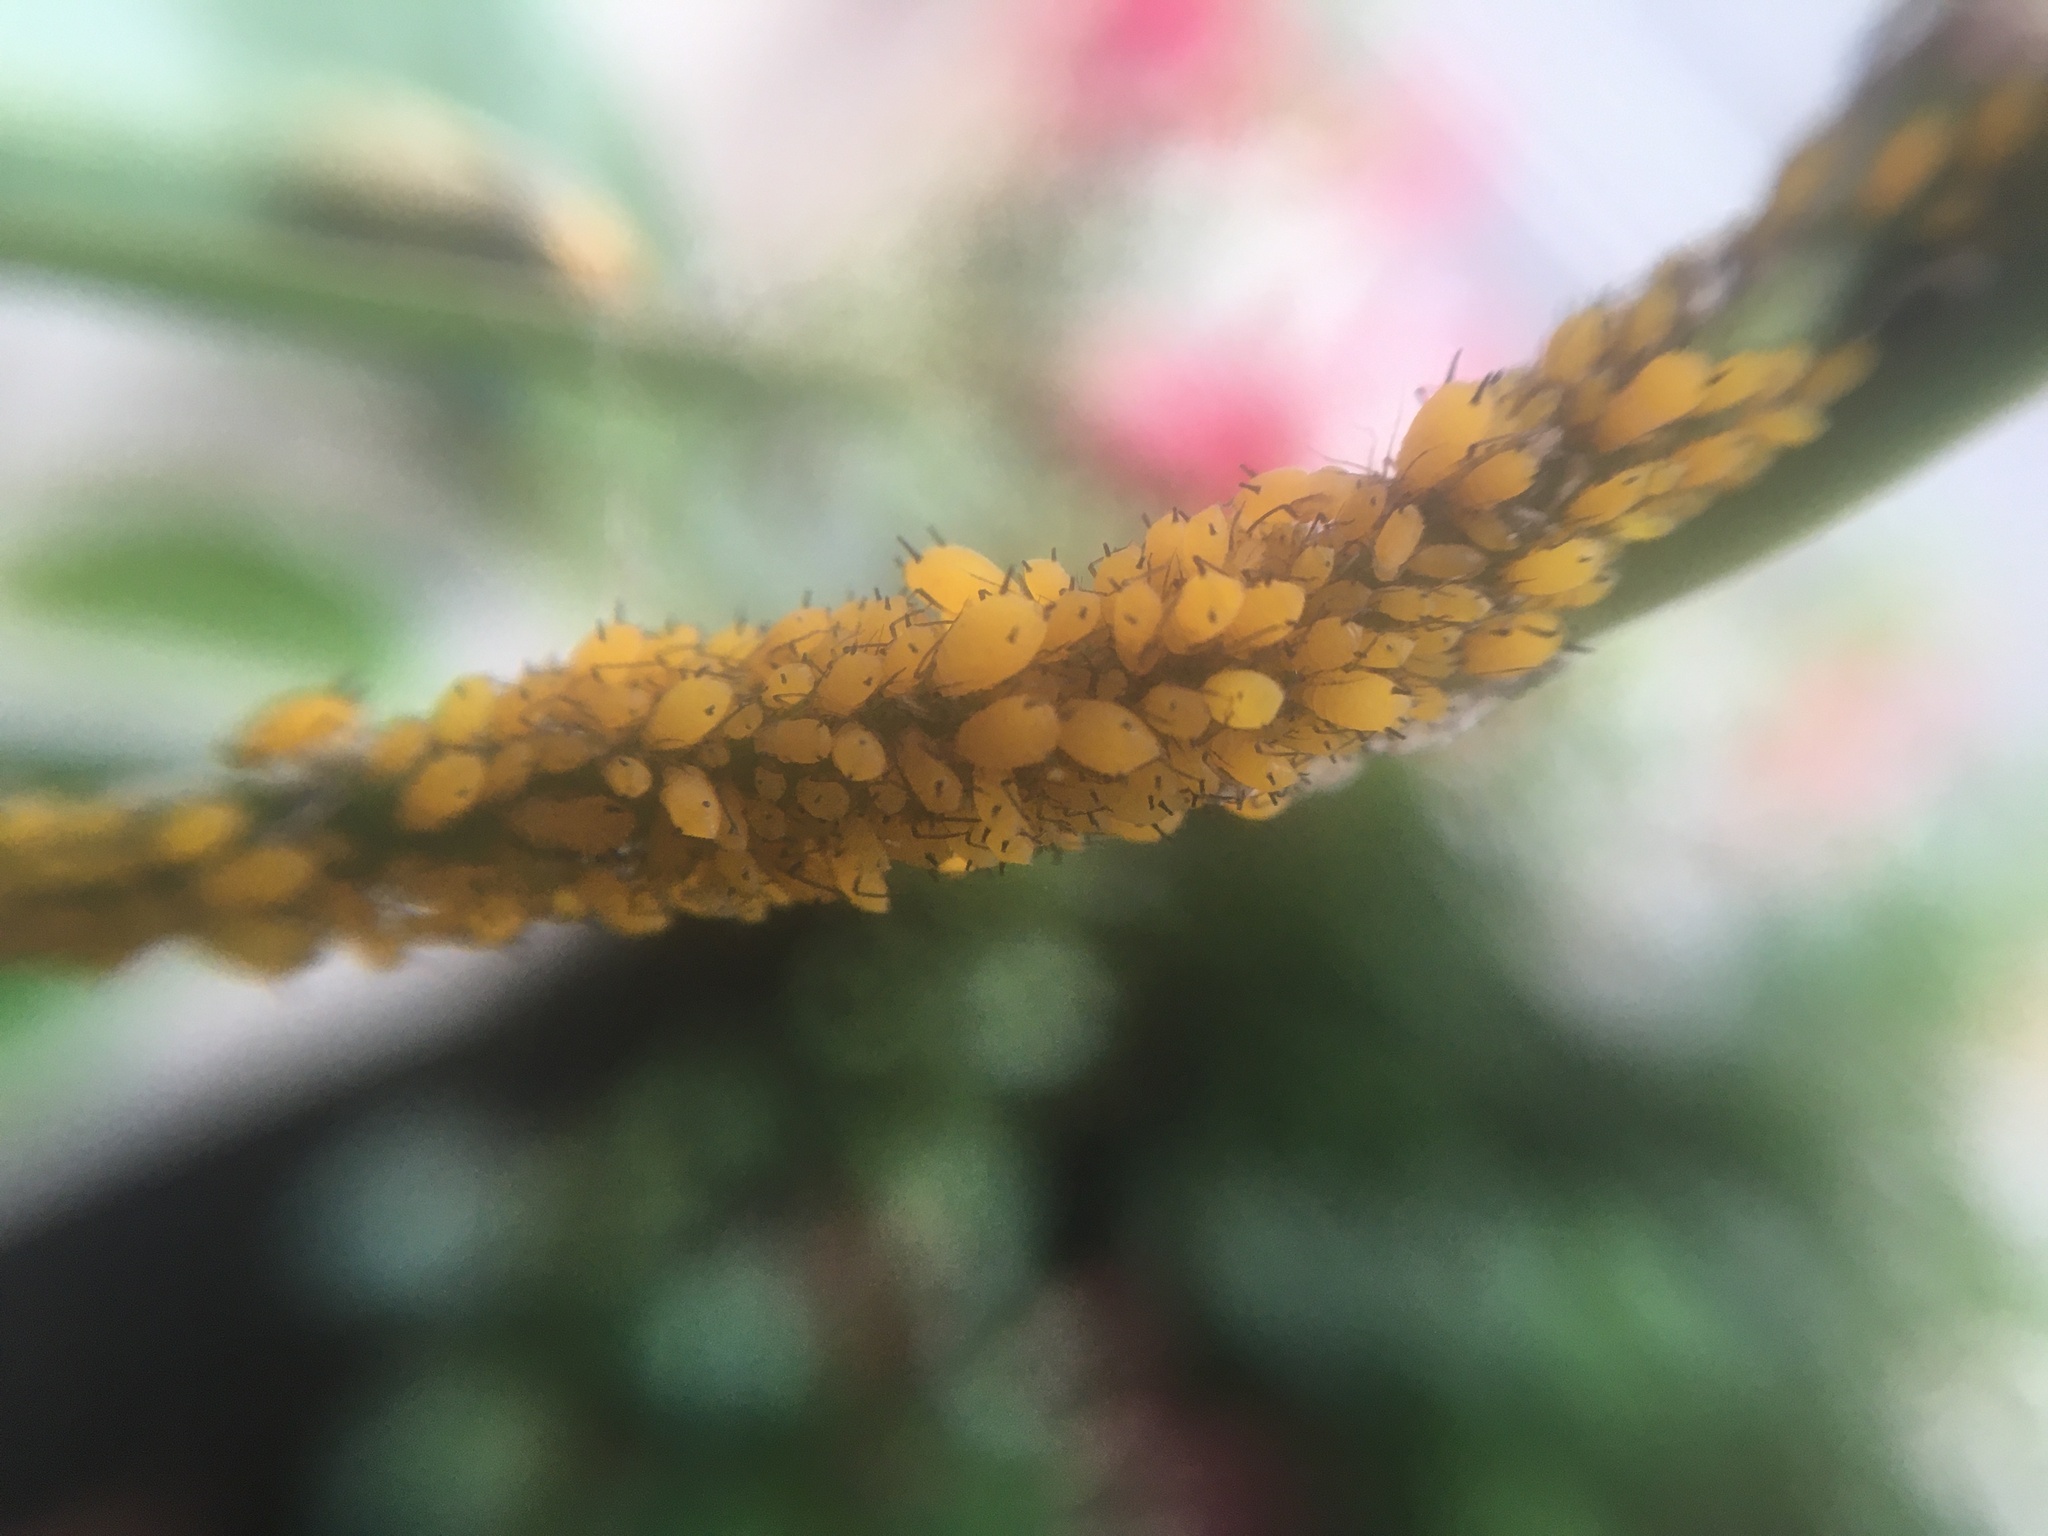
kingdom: Animalia
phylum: Arthropoda
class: Insecta
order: Hemiptera
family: Aphididae
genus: Aphis
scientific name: Aphis nerii
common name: Oleander aphid
